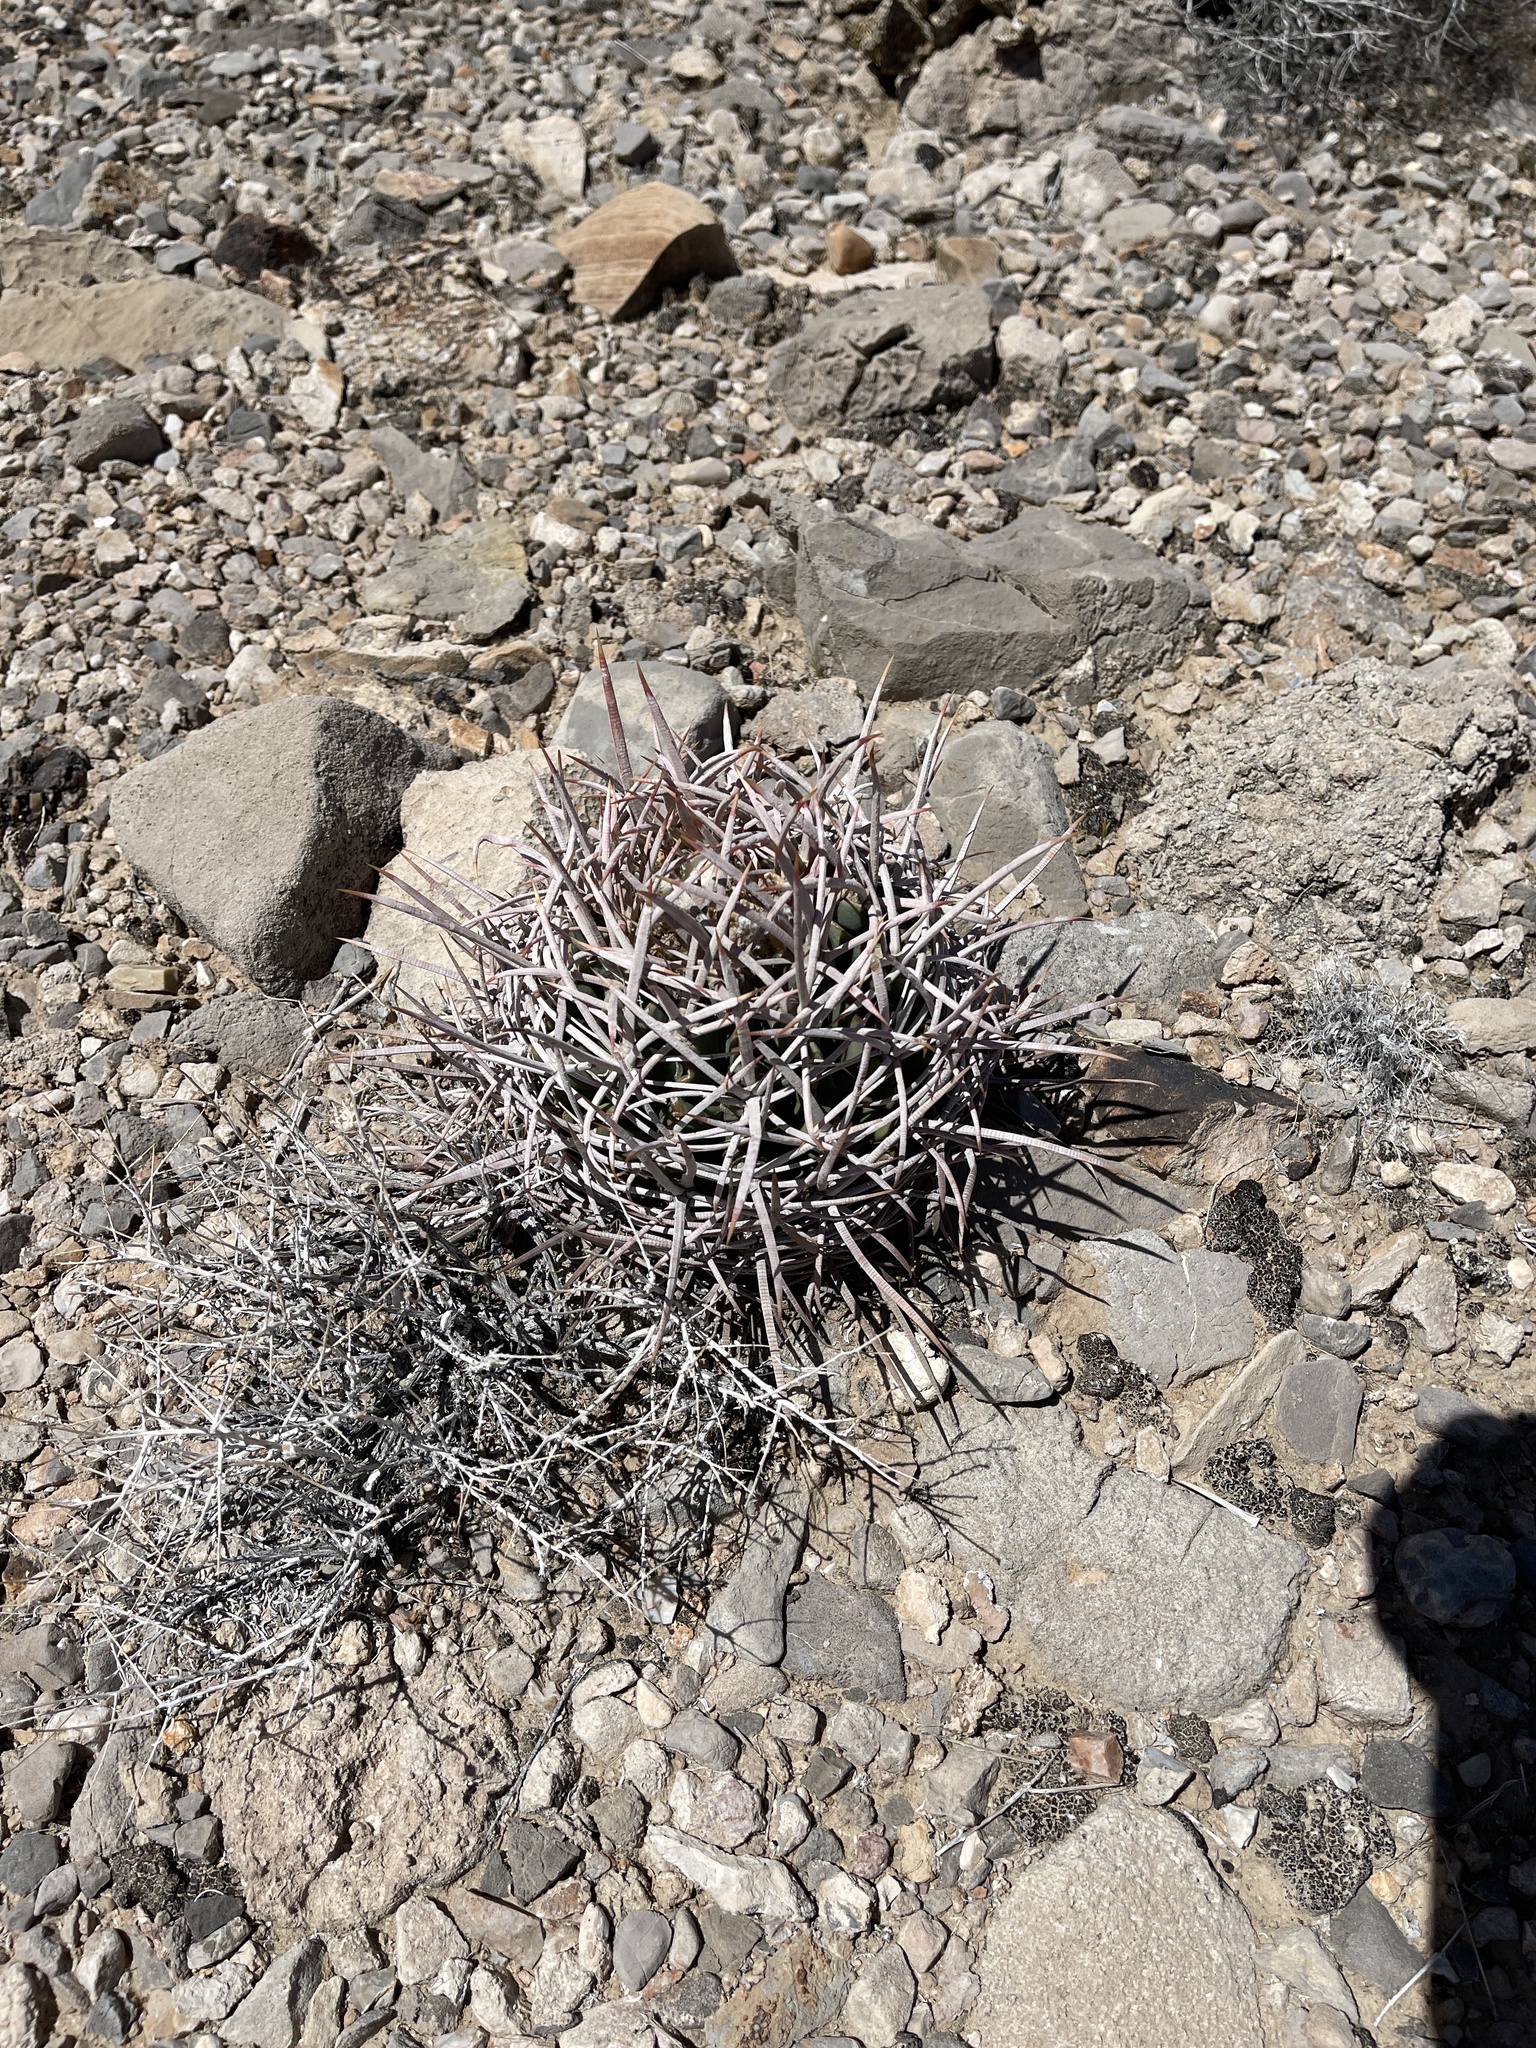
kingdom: Plantae
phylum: Tracheophyta
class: Magnoliopsida
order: Caryophyllales
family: Cactaceae
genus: Echinocactus
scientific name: Echinocactus polycephalus
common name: Cottontop cactus
